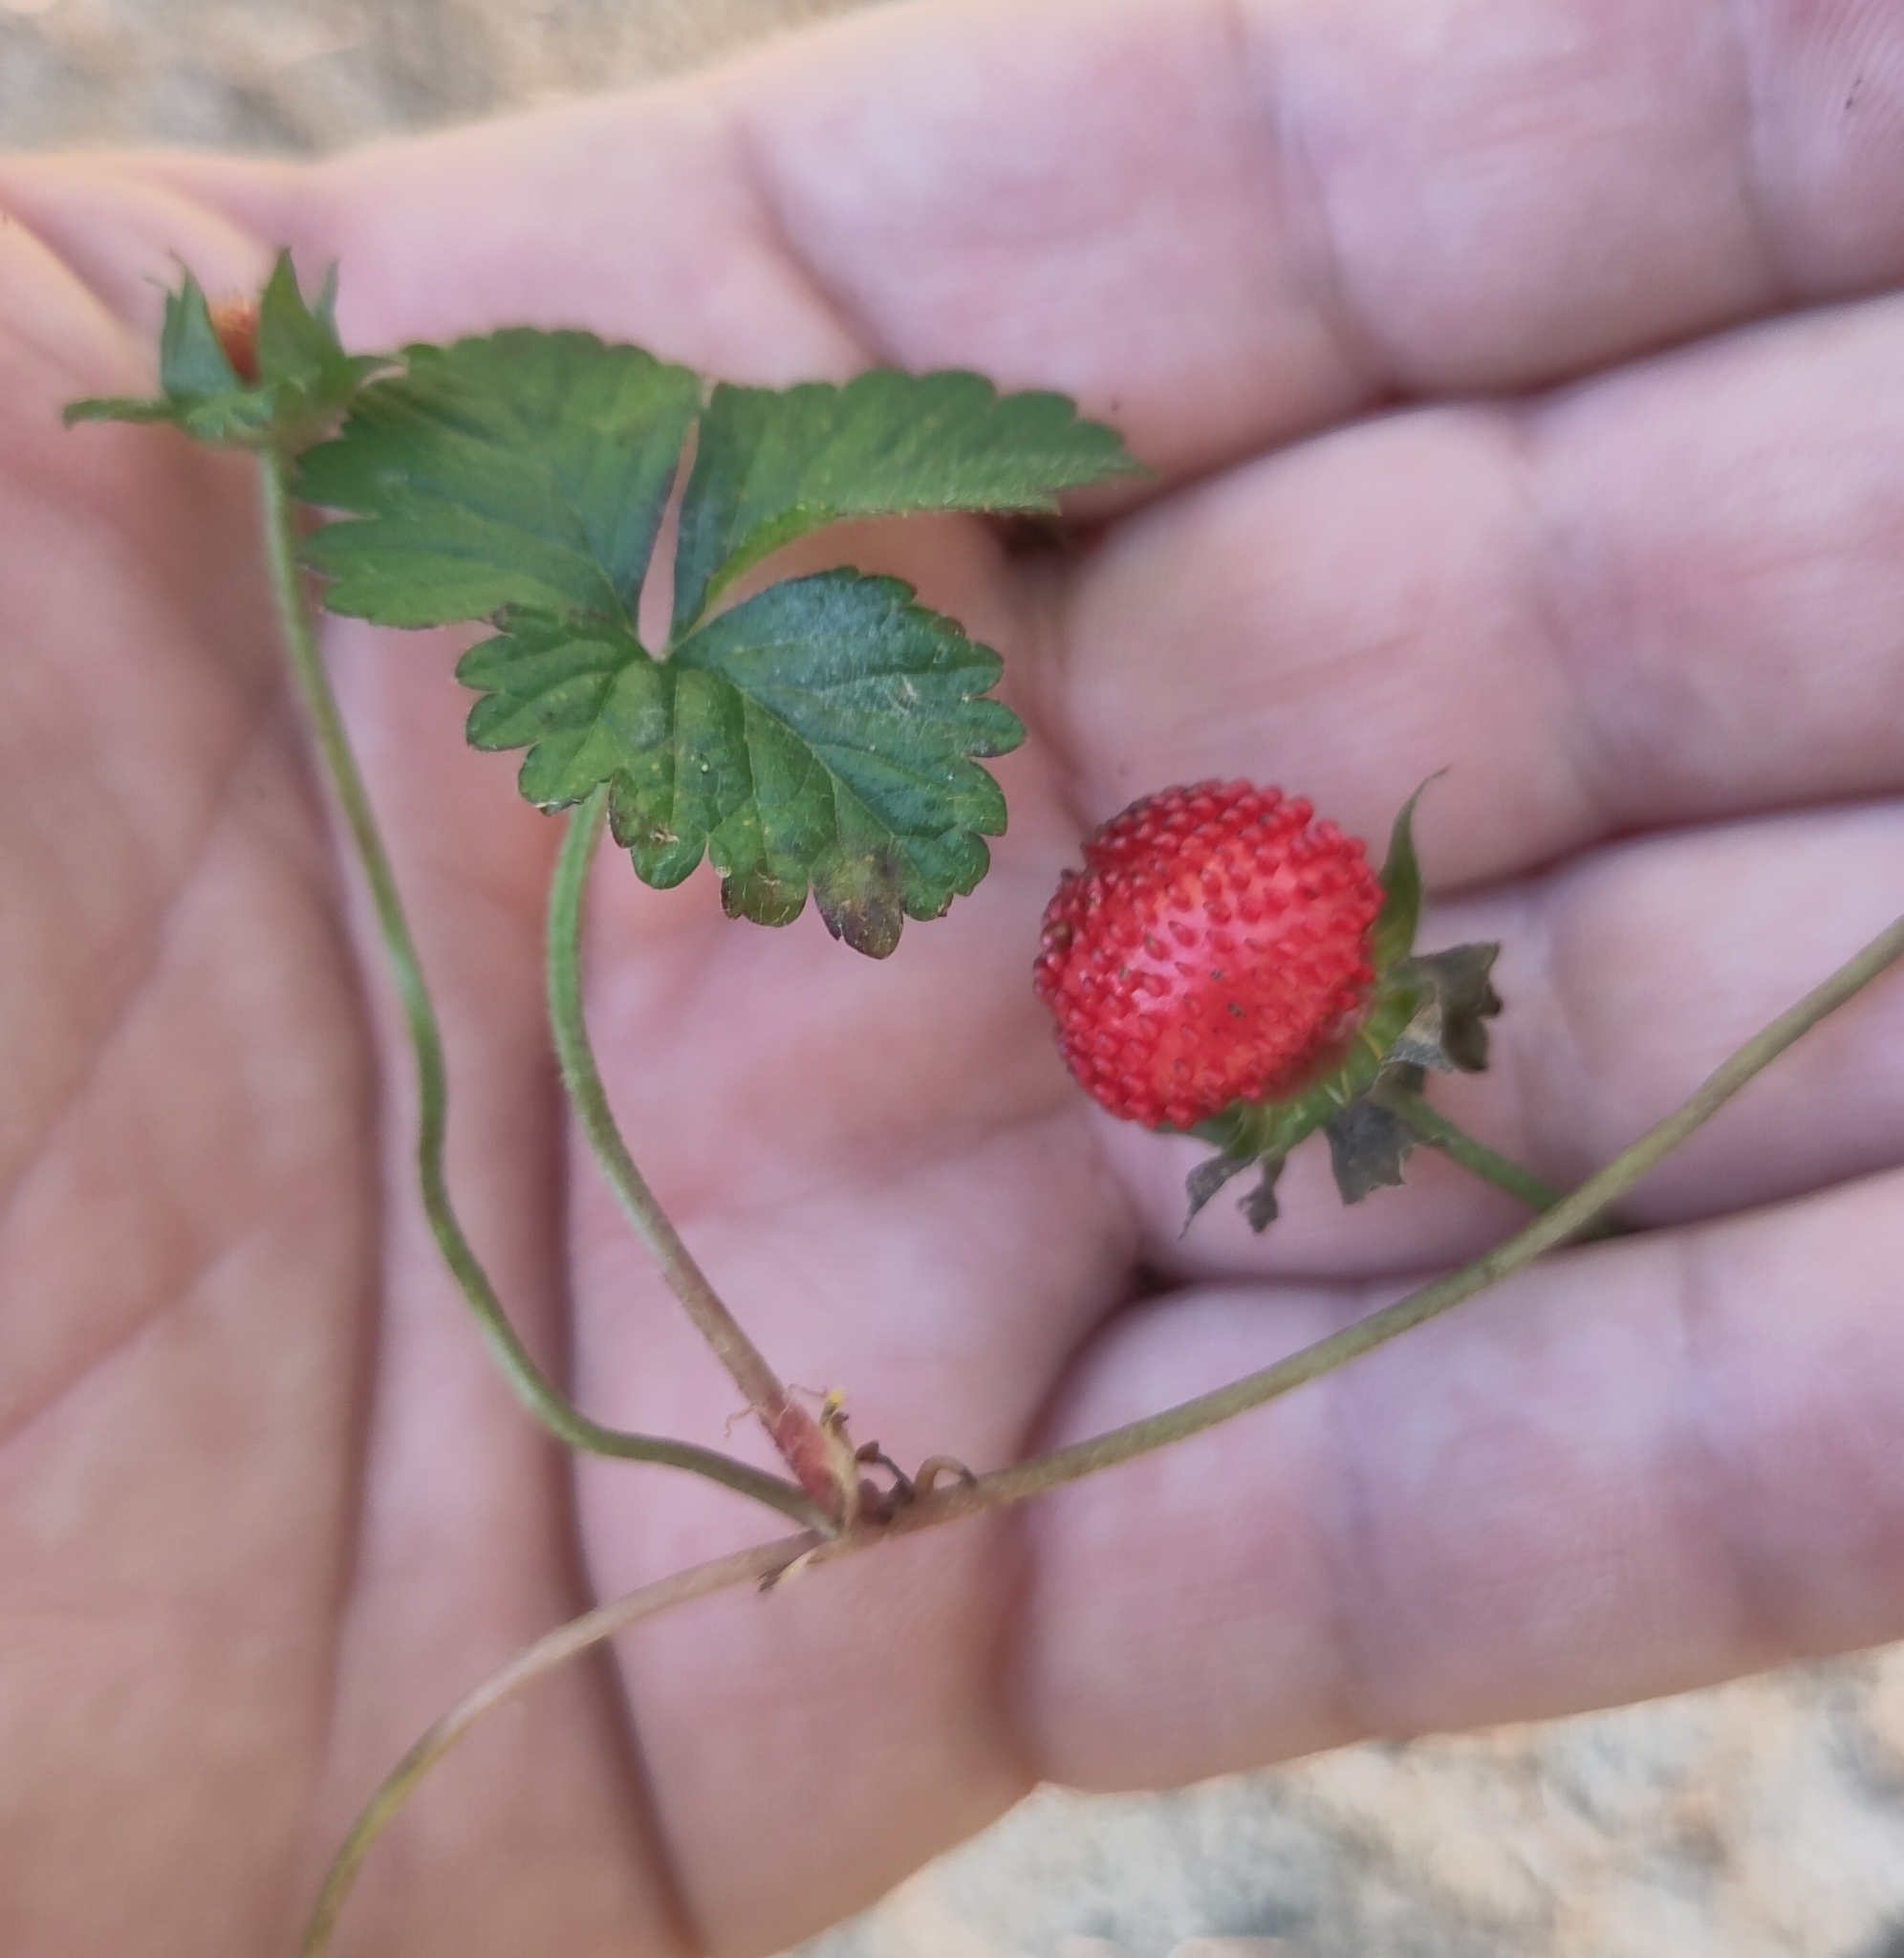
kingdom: Plantae
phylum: Tracheophyta
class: Magnoliopsida
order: Rosales
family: Rosaceae
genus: Potentilla
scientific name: Potentilla indica
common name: Yellow-flowered strawberry
